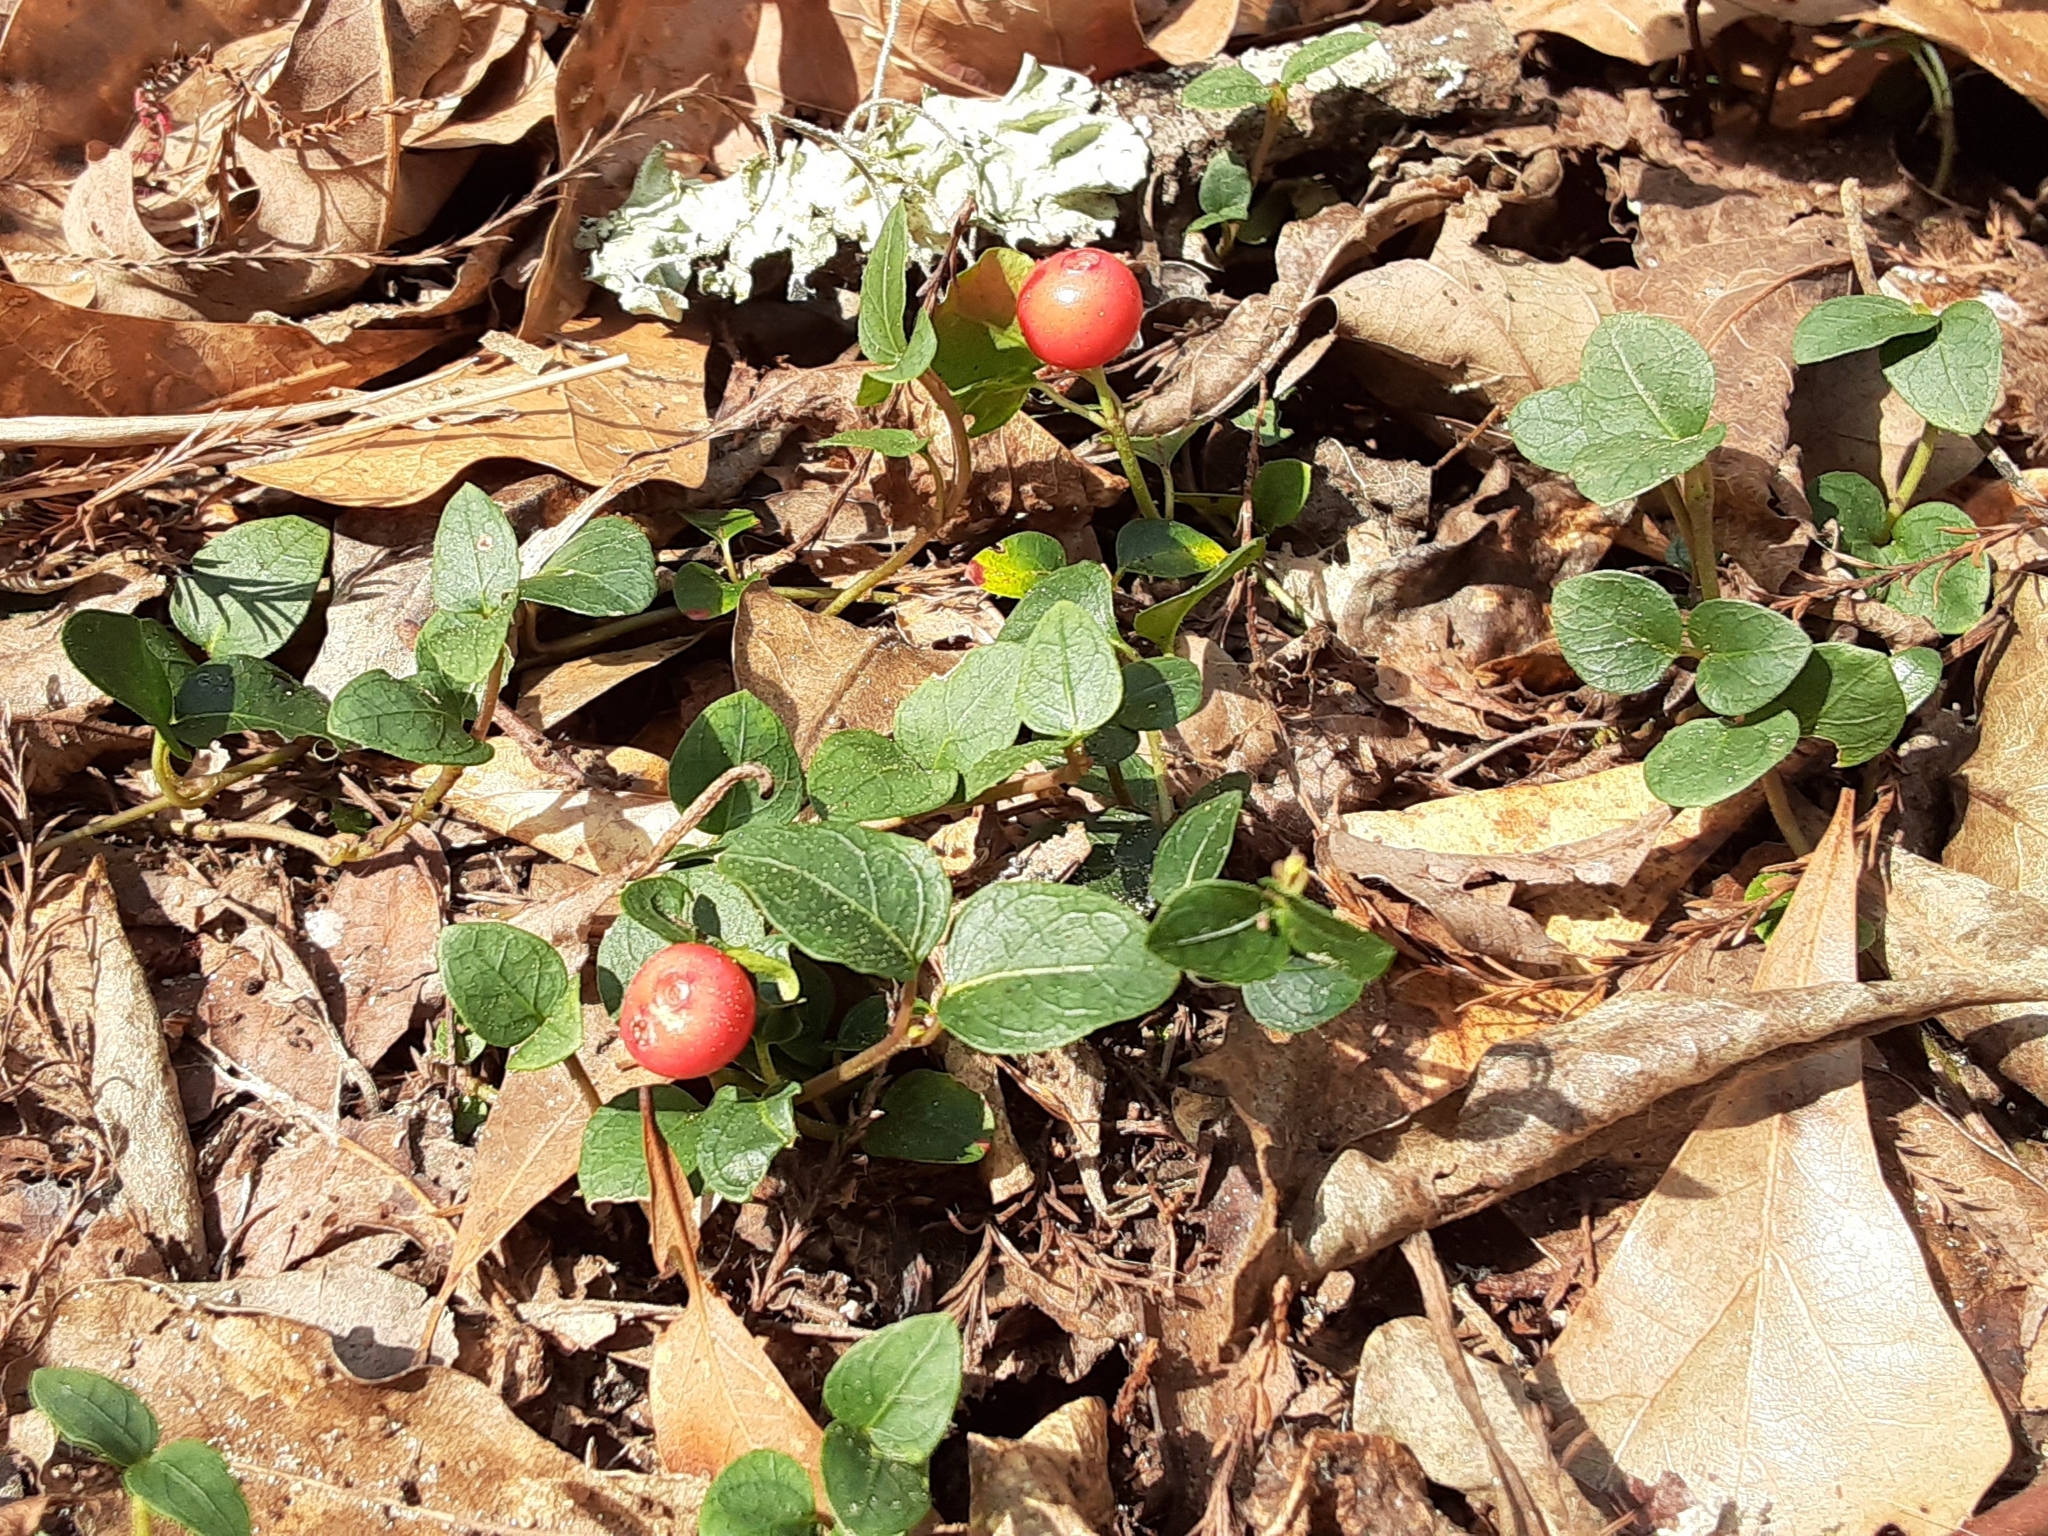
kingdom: Plantae
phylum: Tracheophyta
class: Magnoliopsida
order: Gentianales
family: Rubiaceae
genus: Mitchella
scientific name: Mitchella repens
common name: Partridge-berry
